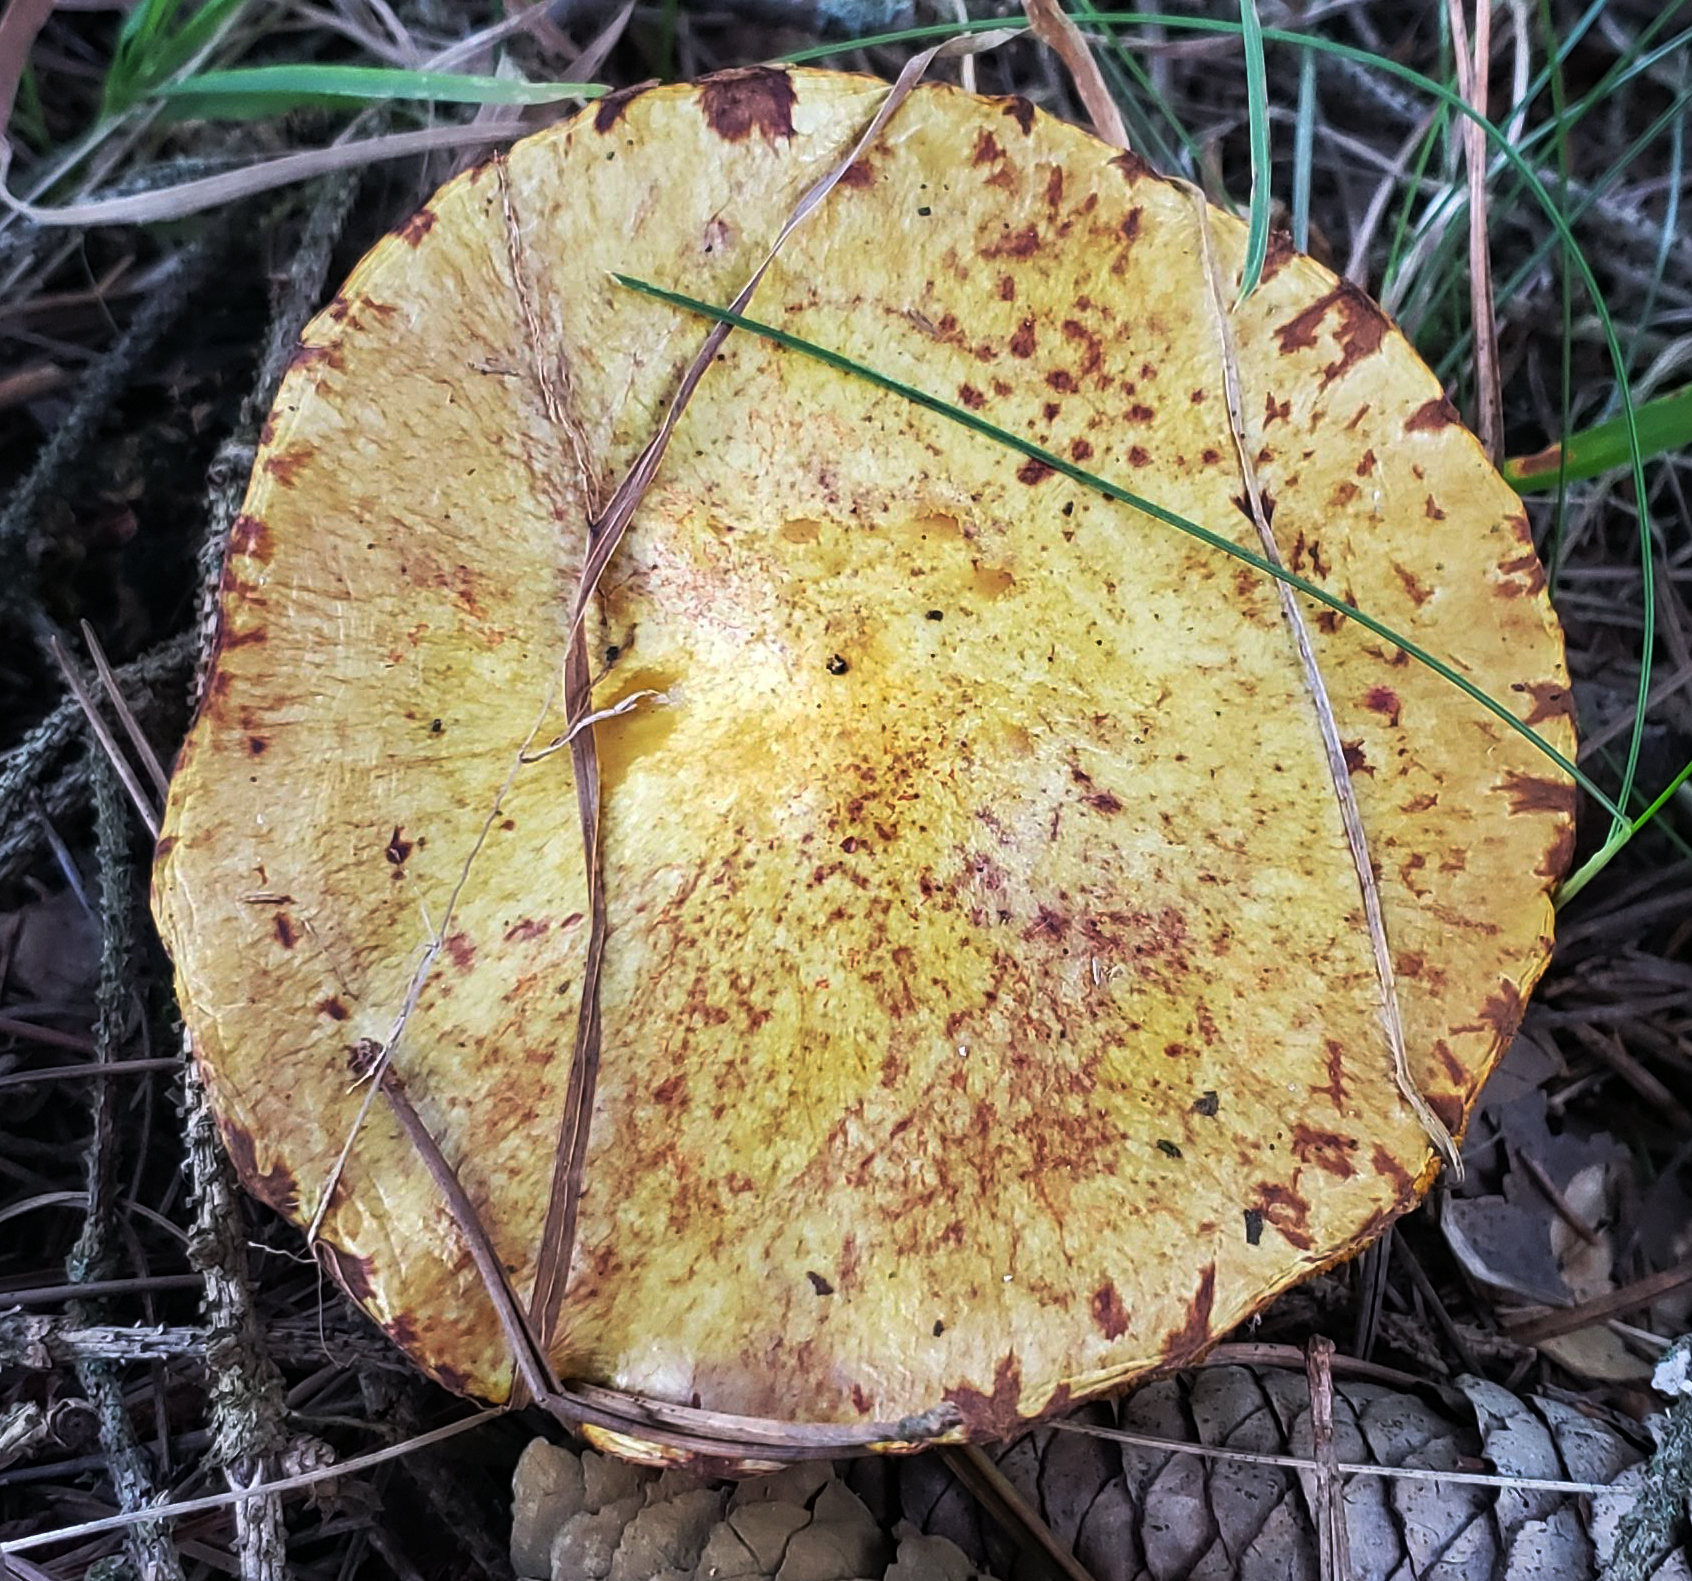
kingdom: Fungi
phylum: Basidiomycota
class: Agaricomycetes
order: Boletales
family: Suillaceae
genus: Suillus
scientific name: Suillus americanus
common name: Chicken fat mushroom
